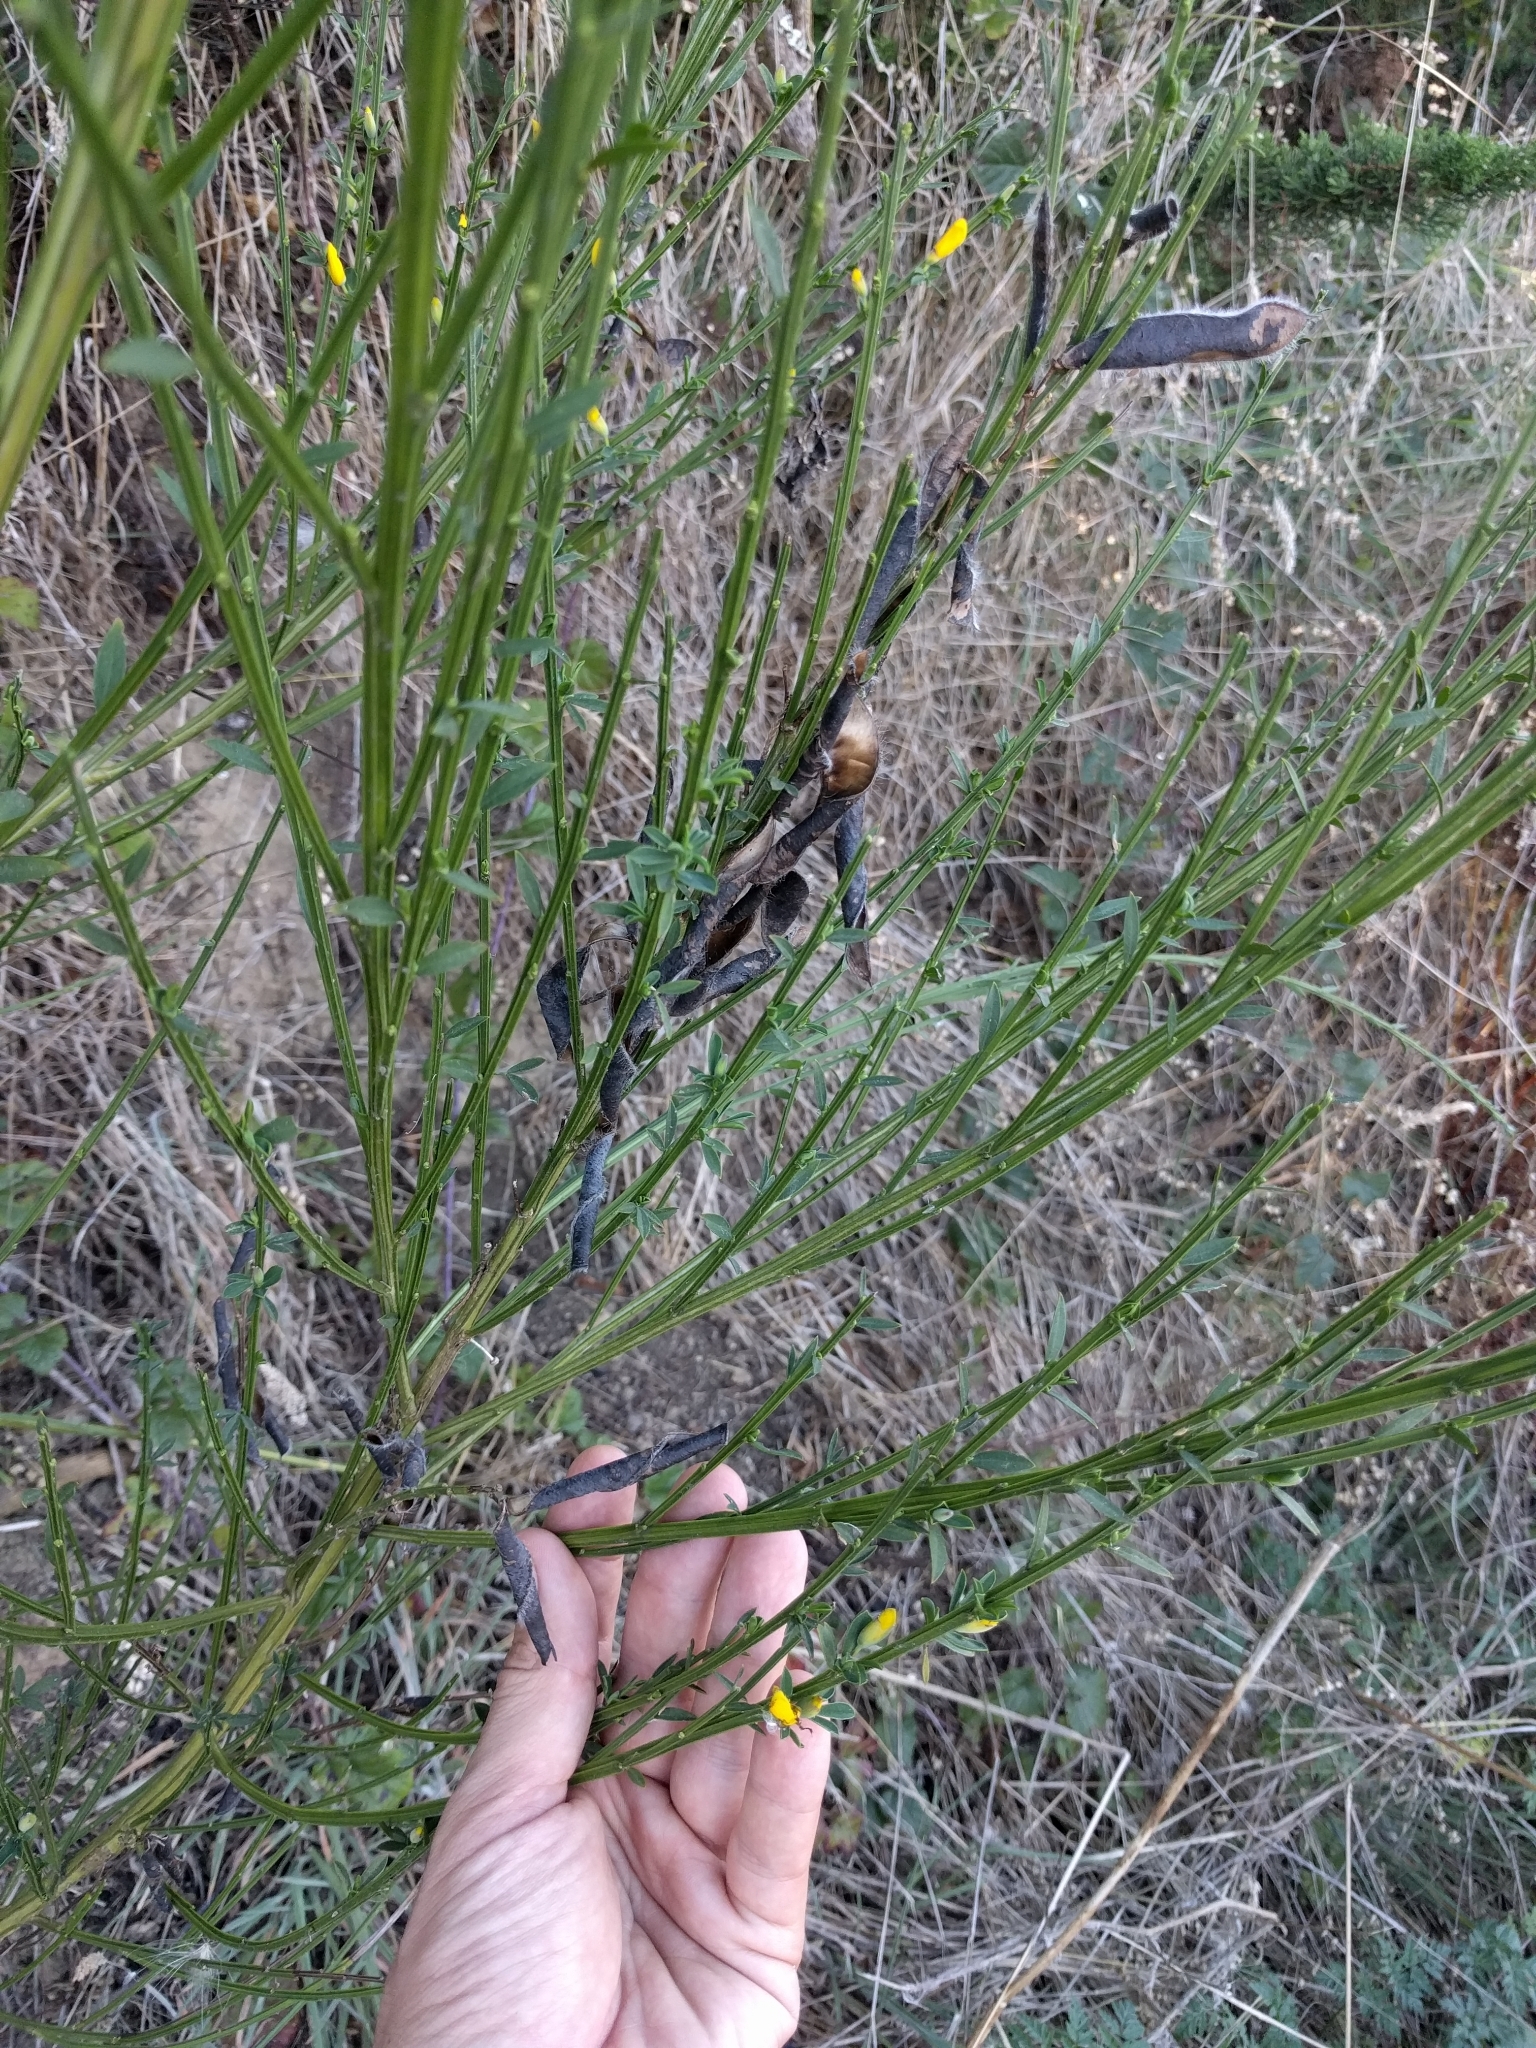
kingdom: Plantae
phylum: Tracheophyta
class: Magnoliopsida
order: Fabales
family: Fabaceae
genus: Cytisus
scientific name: Cytisus scoparius
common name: Scotch broom
